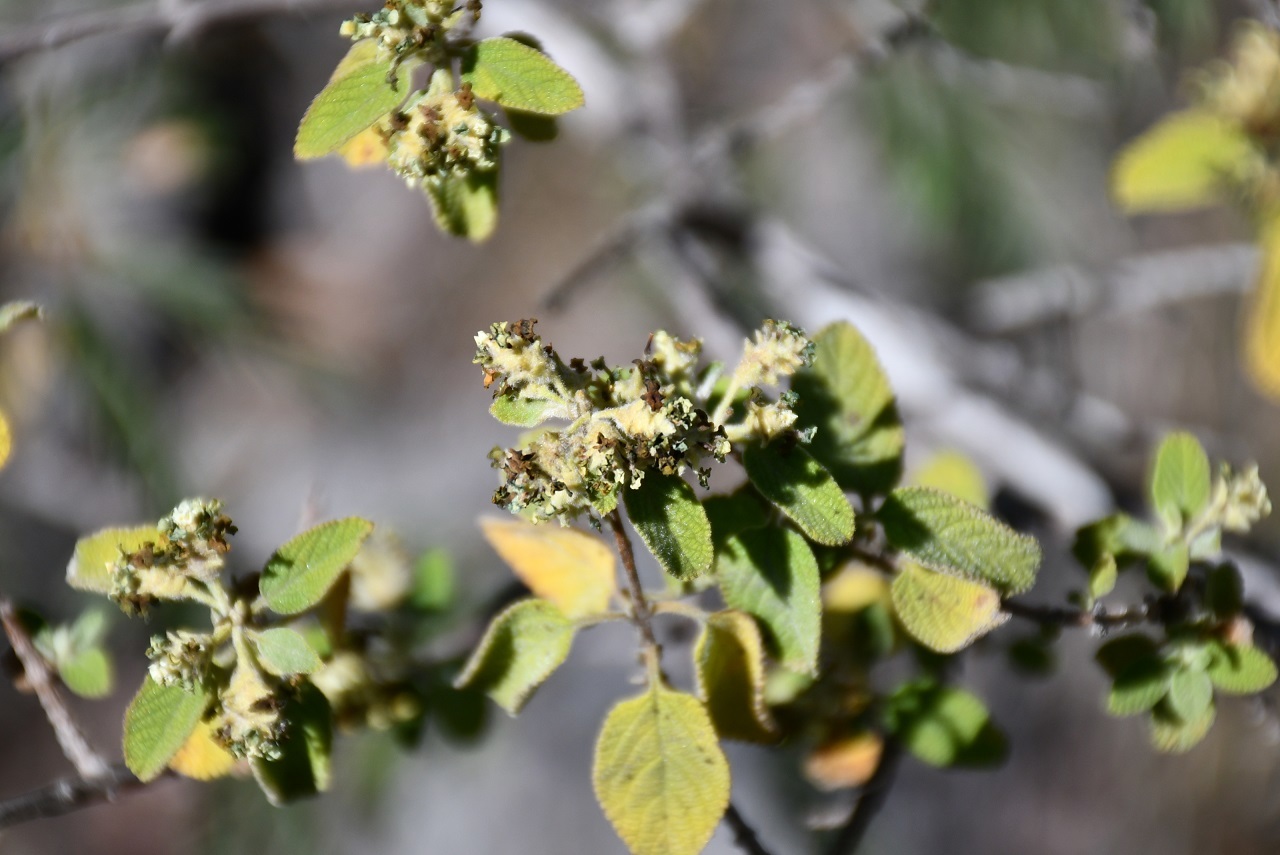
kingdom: Plantae
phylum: Tracheophyta
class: Magnoliopsida
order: Lamiales
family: Verbenaceae
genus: Lippia
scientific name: Lippia origanoides
